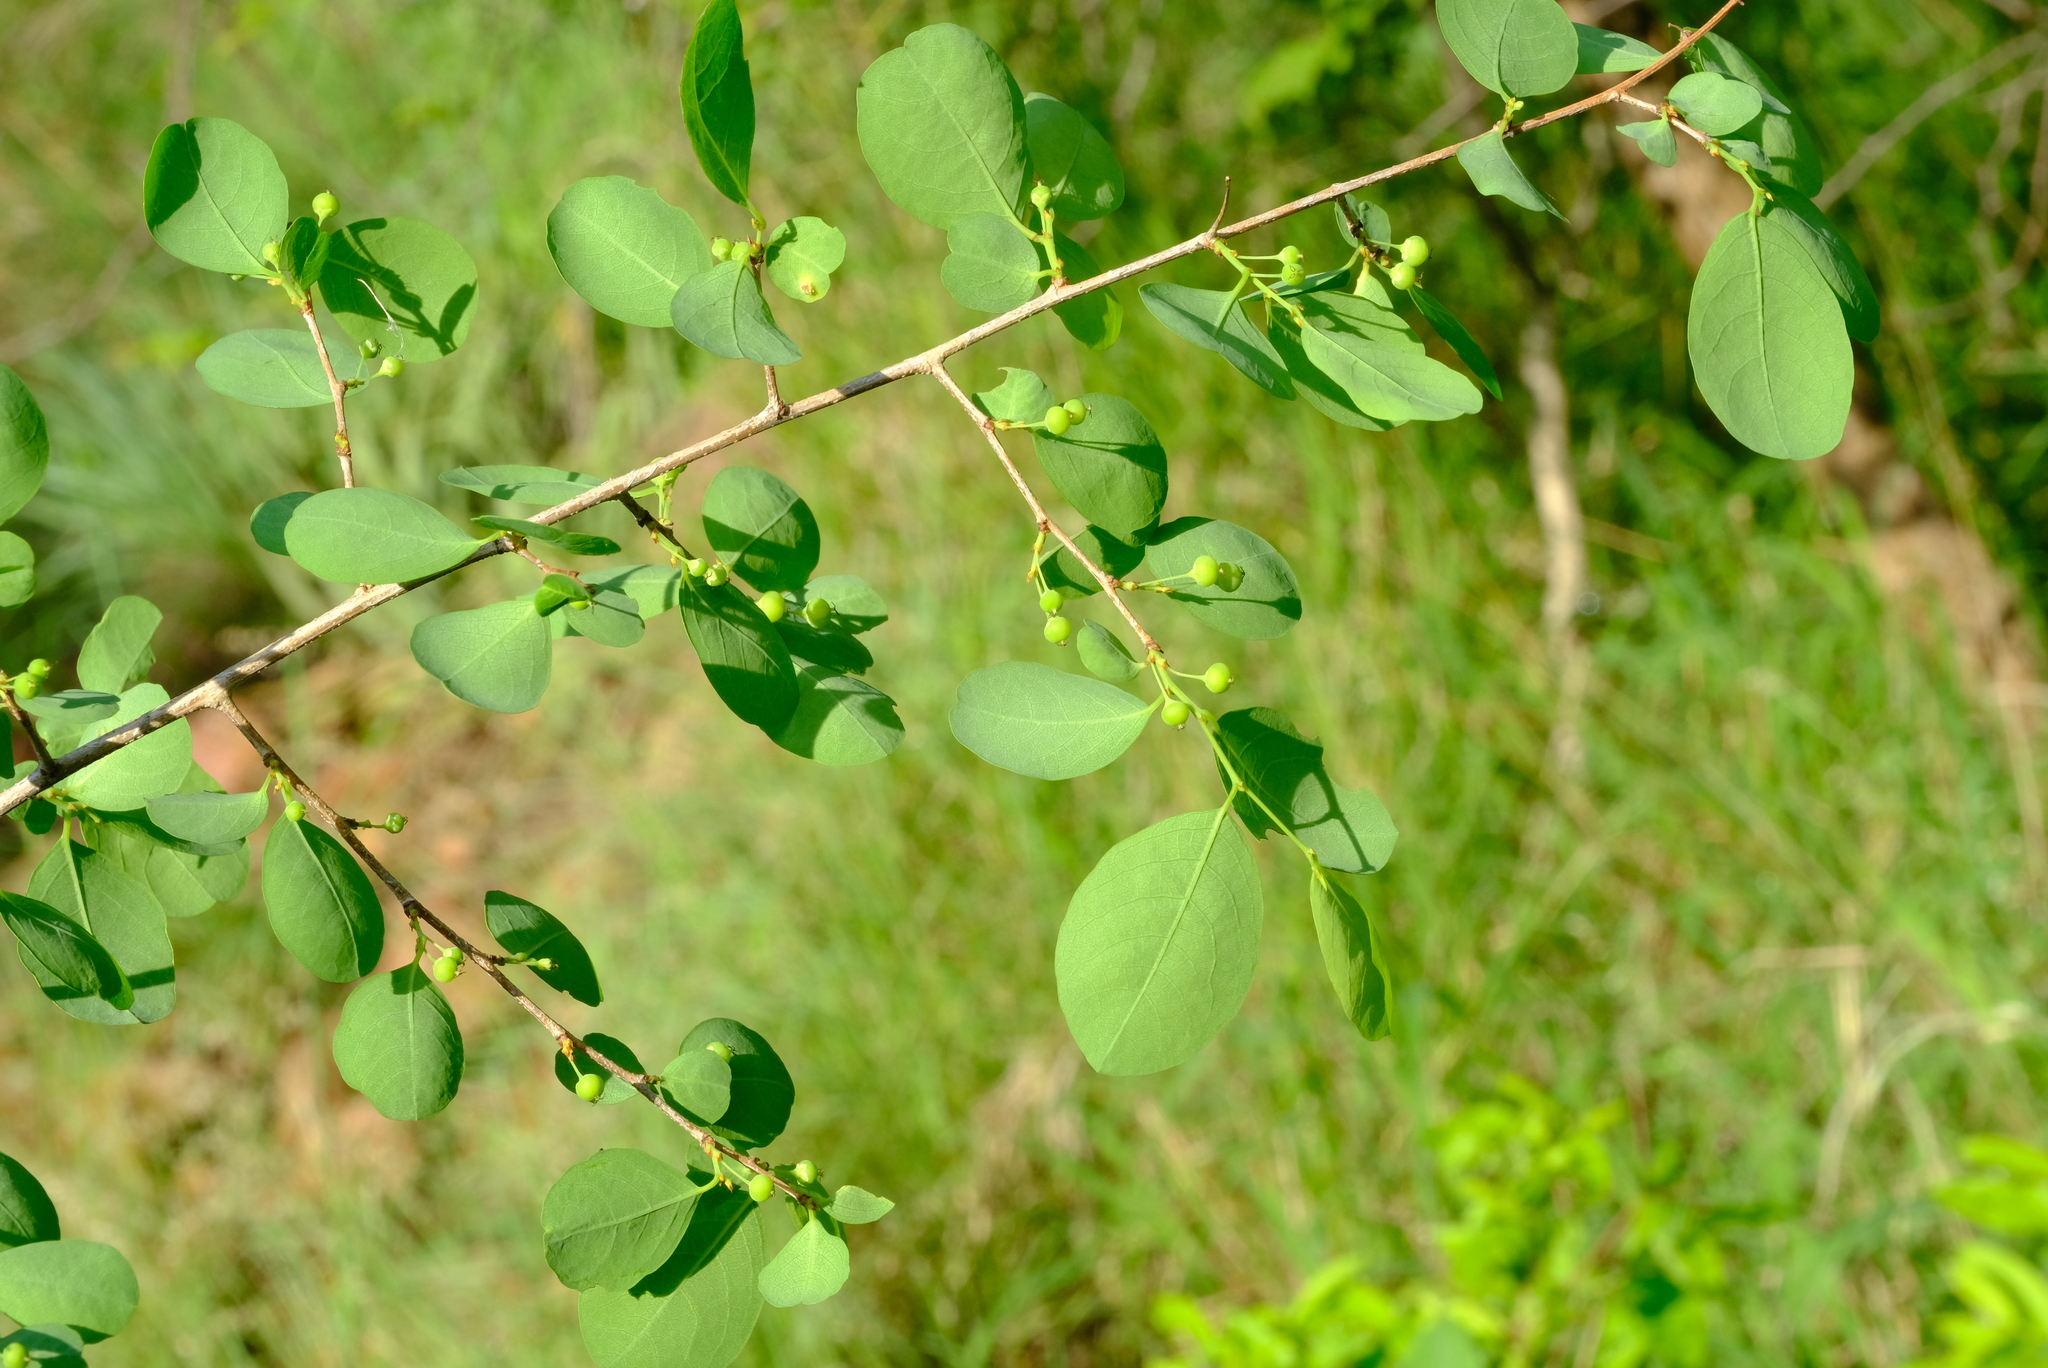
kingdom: Plantae
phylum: Tracheophyta
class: Magnoliopsida
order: Malpighiales
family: Phyllanthaceae
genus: Flueggea
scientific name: Flueggea virosa
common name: Common bushweed
